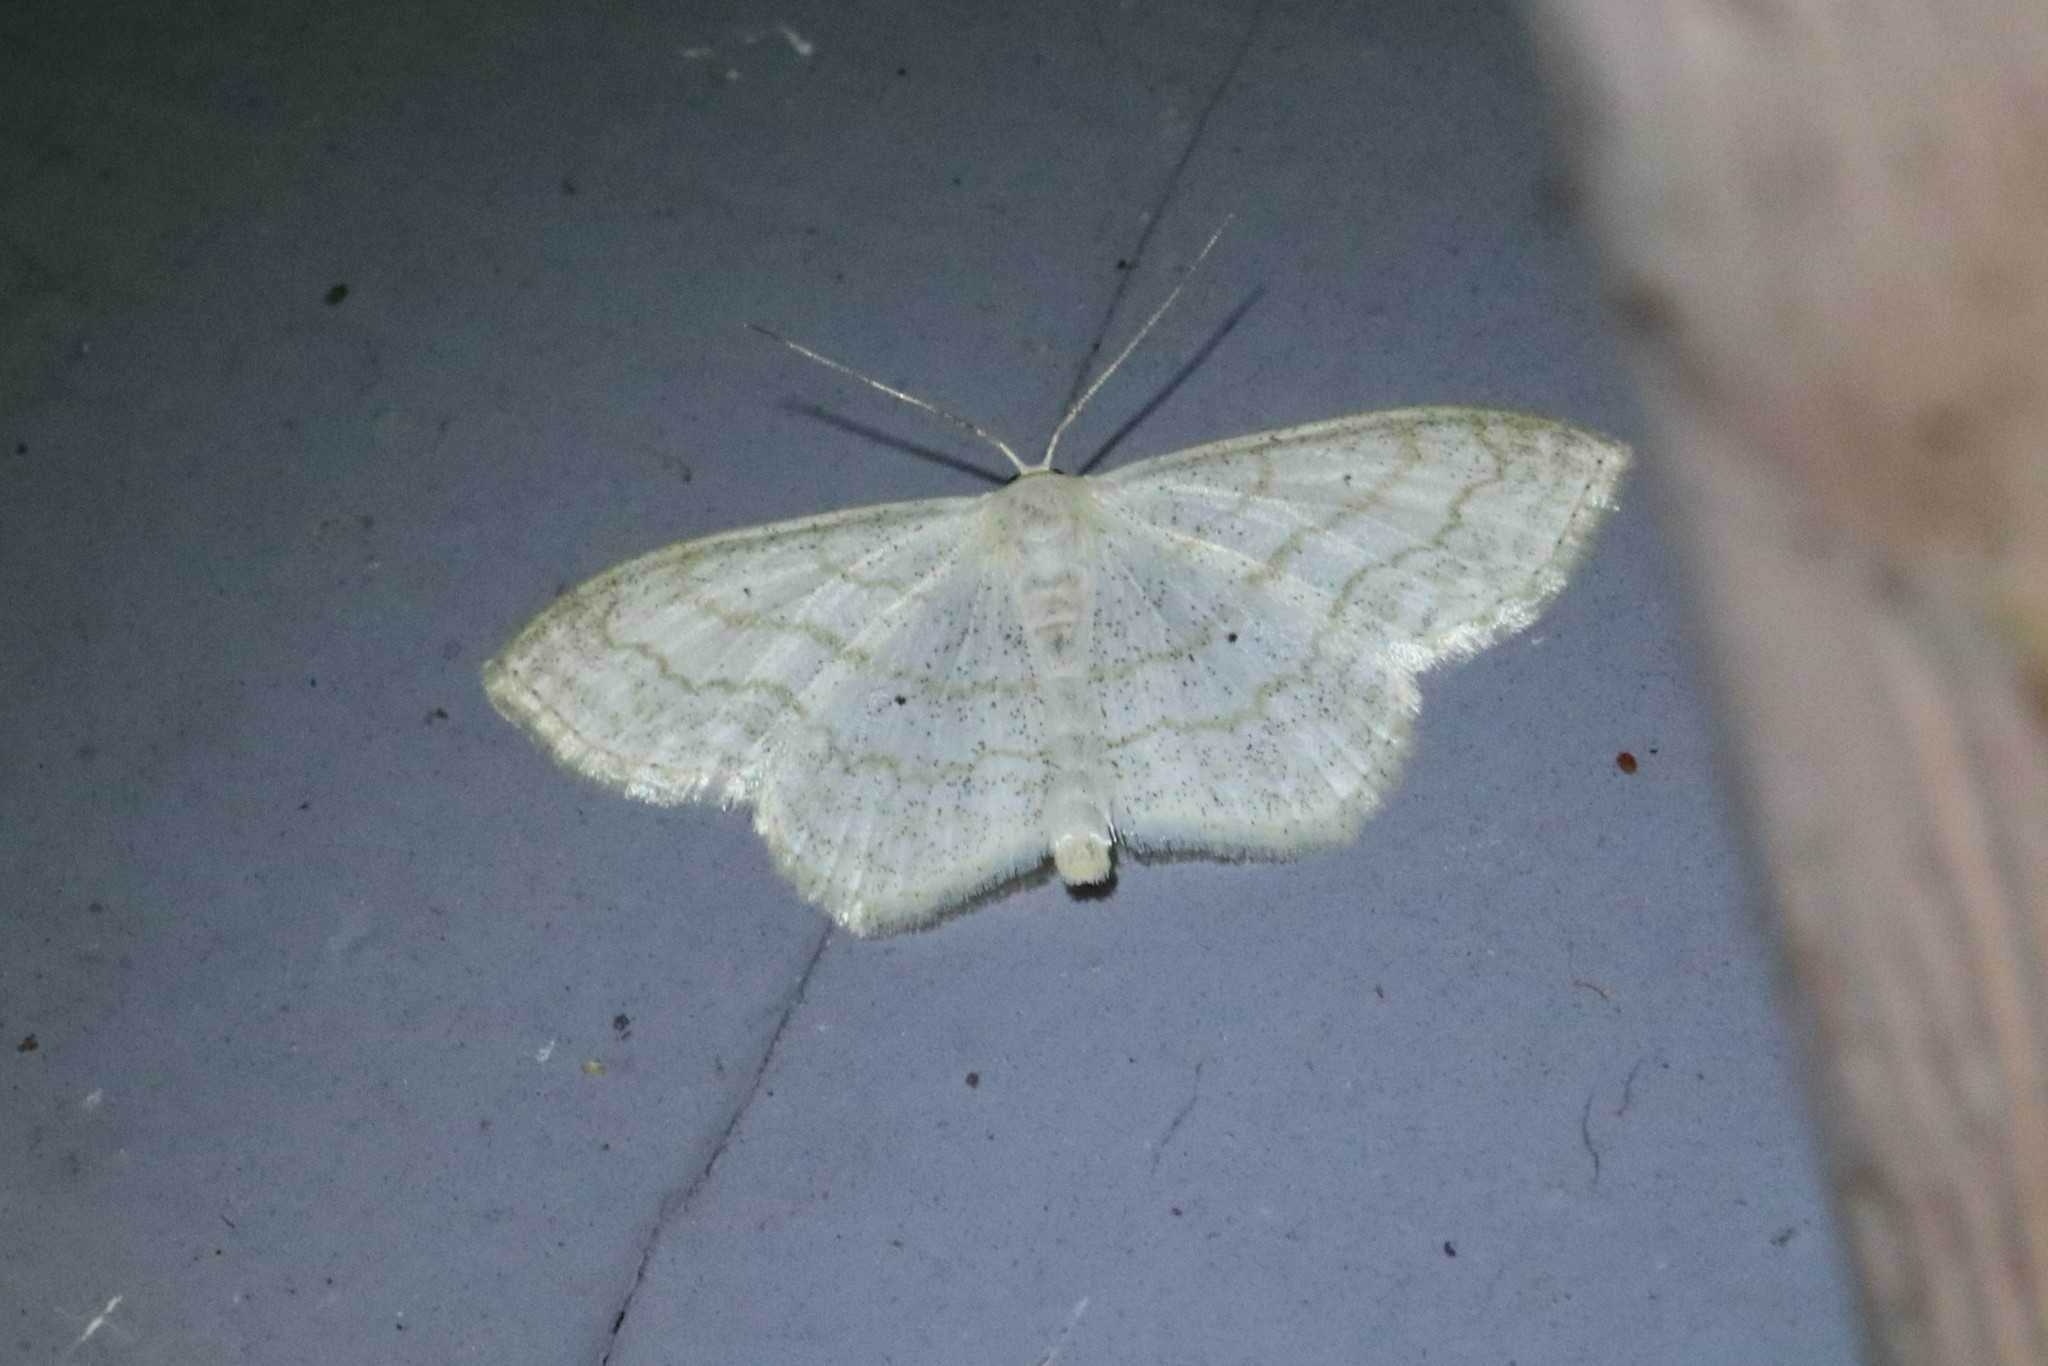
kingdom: Animalia
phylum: Arthropoda
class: Insecta
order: Lepidoptera
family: Geometridae
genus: Scopula
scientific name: Scopula limboundata
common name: Large lace border
